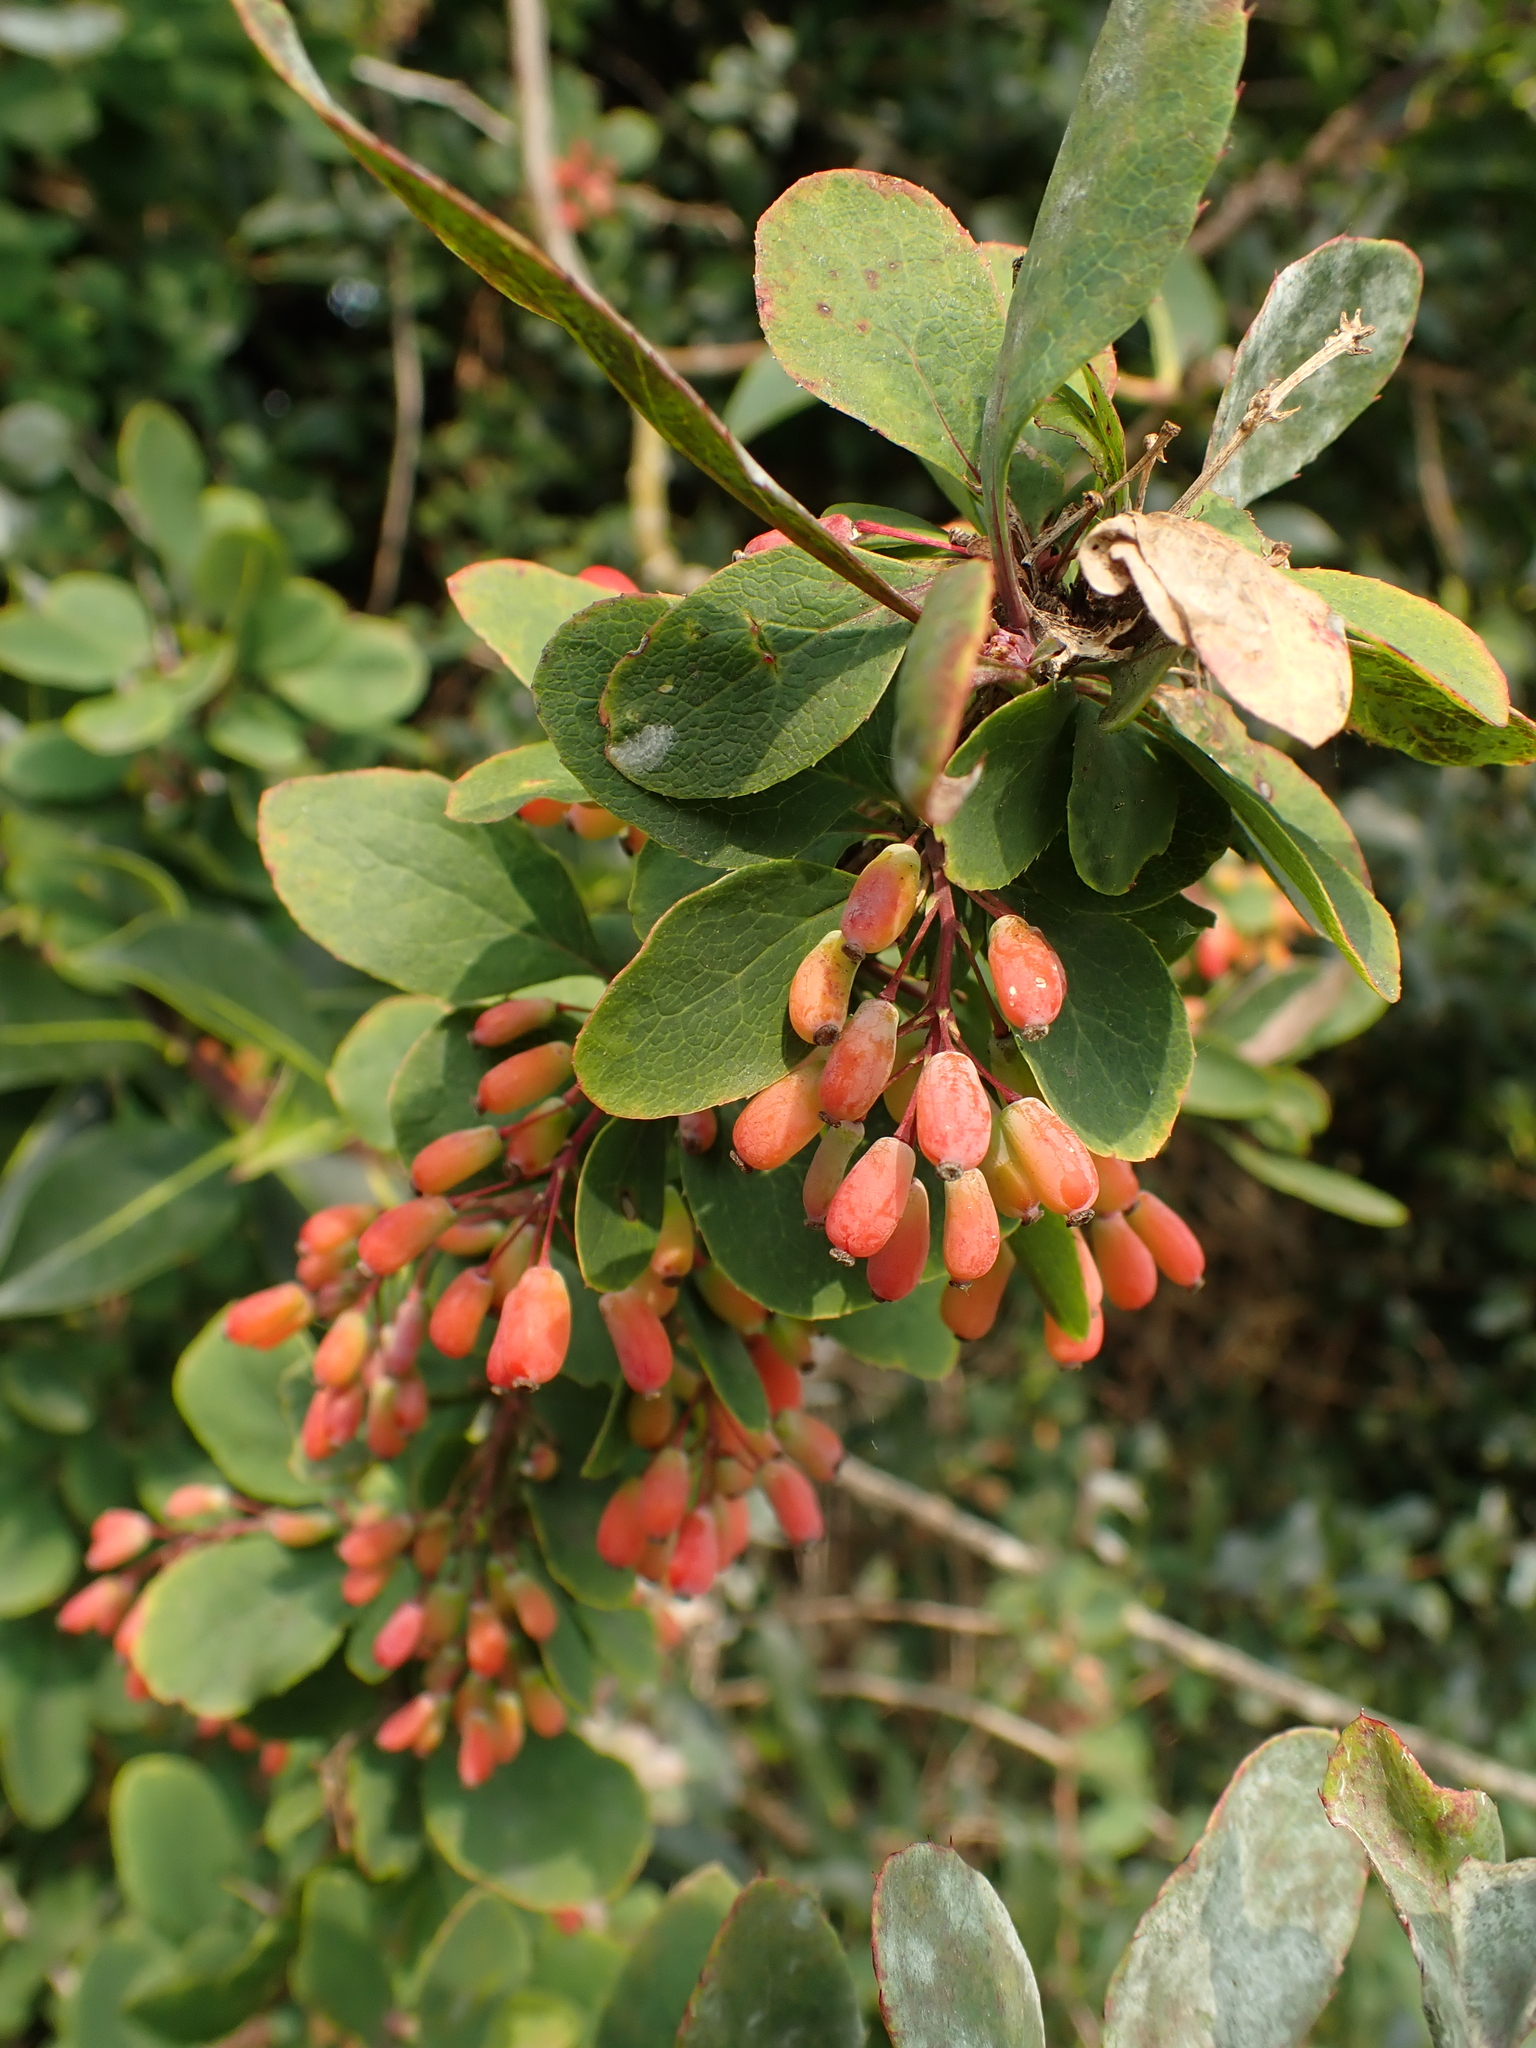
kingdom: Plantae
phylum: Tracheophyta
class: Magnoliopsida
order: Ranunculales
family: Berberidaceae
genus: Berberis
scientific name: Berberis vulgaris
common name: Barberry
